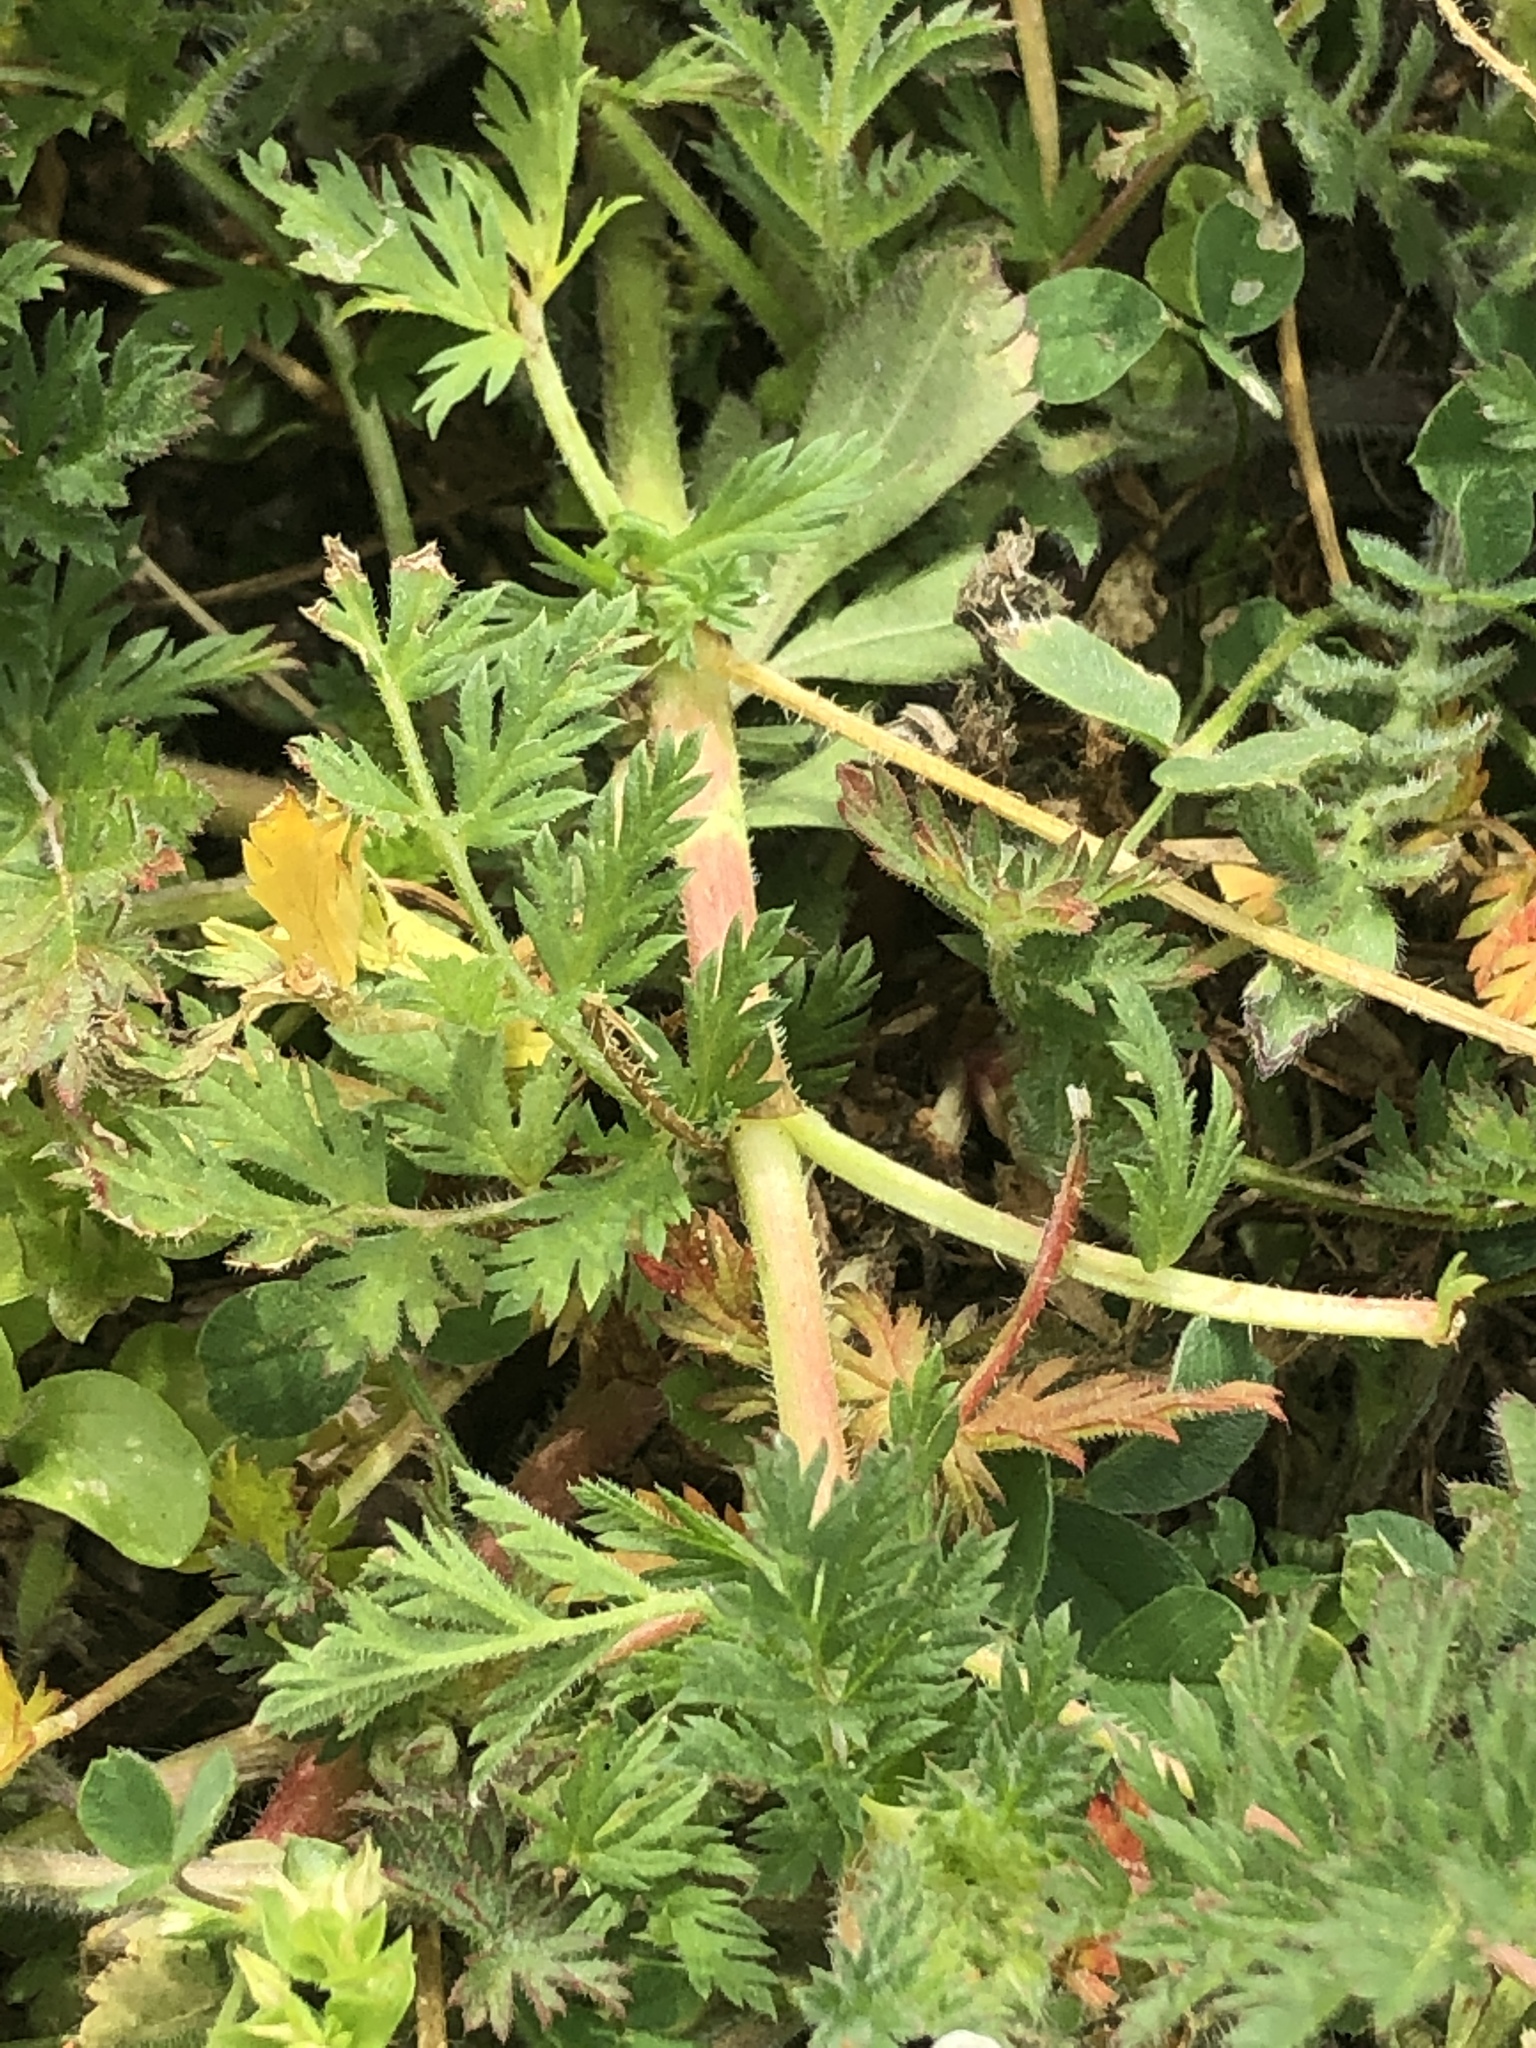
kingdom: Plantae
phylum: Tracheophyta
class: Magnoliopsida
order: Geraniales
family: Geraniaceae
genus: Erodium
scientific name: Erodium cicutarium
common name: Common stork's-bill
